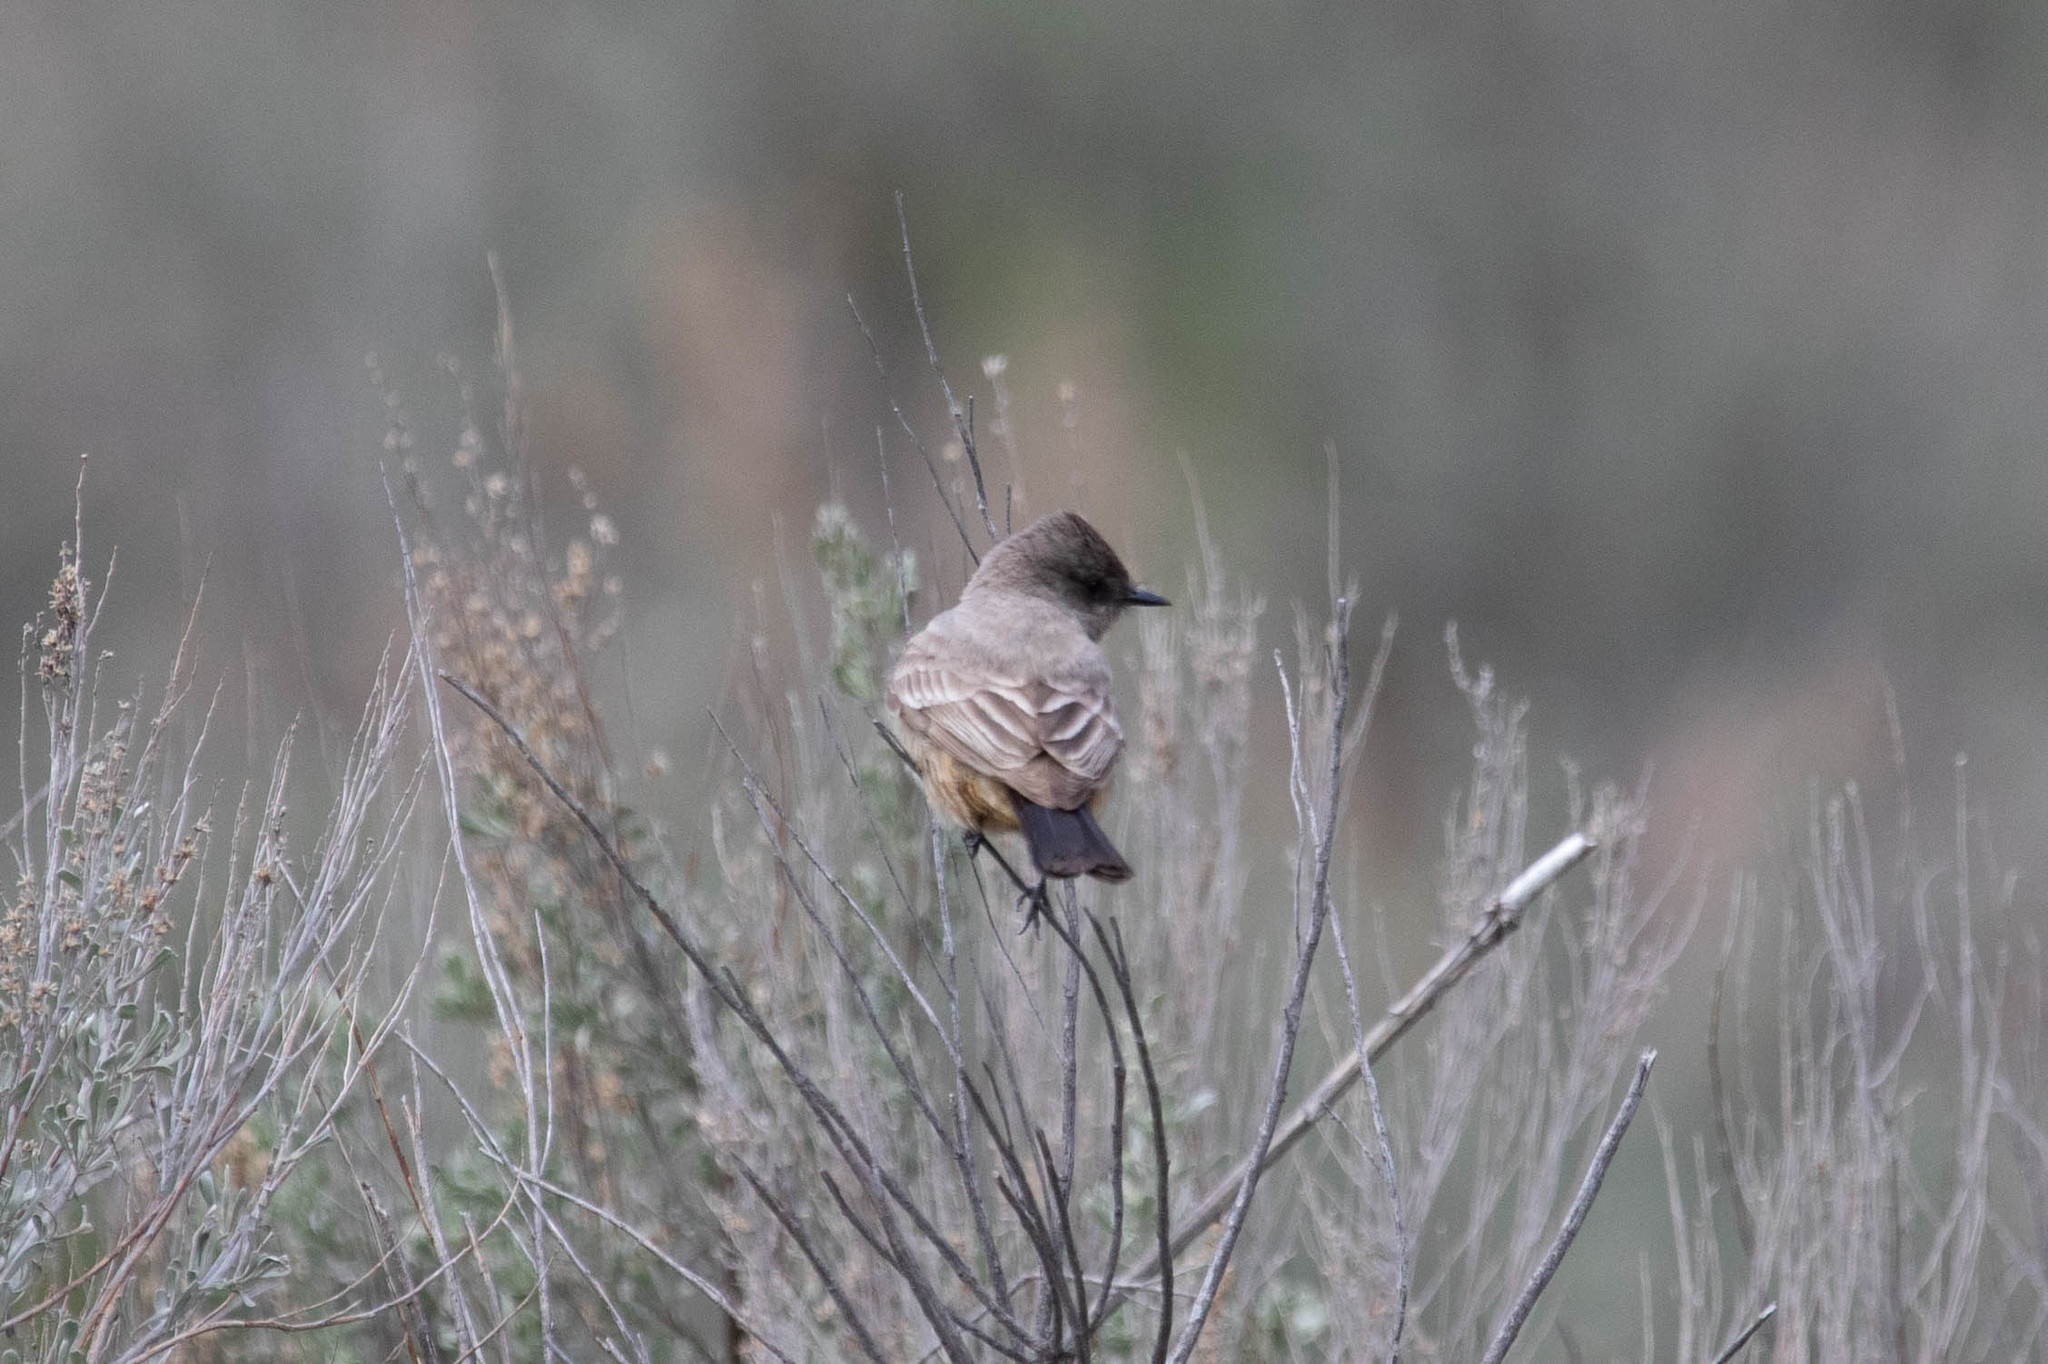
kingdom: Animalia
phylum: Chordata
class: Aves
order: Passeriformes
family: Tyrannidae
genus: Sayornis
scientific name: Sayornis saya
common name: Say's phoebe
